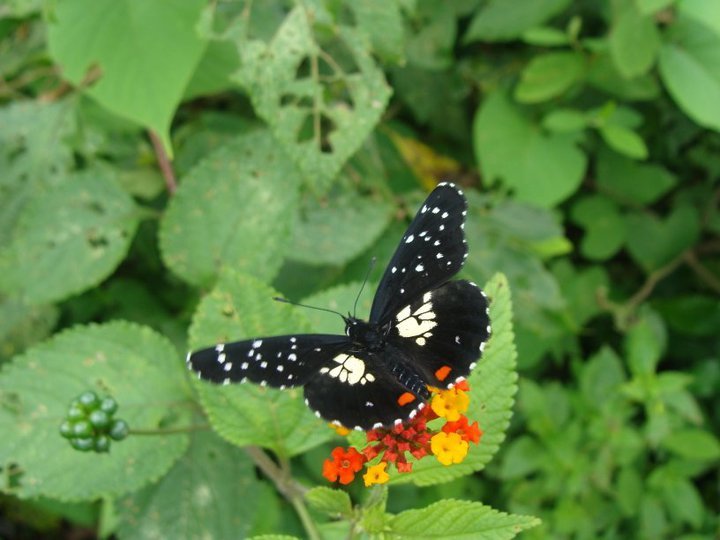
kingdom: Animalia
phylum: Arthropoda
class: Insecta
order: Lepidoptera
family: Nymphalidae
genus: Chlosyne
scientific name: Chlosyne erodyle
